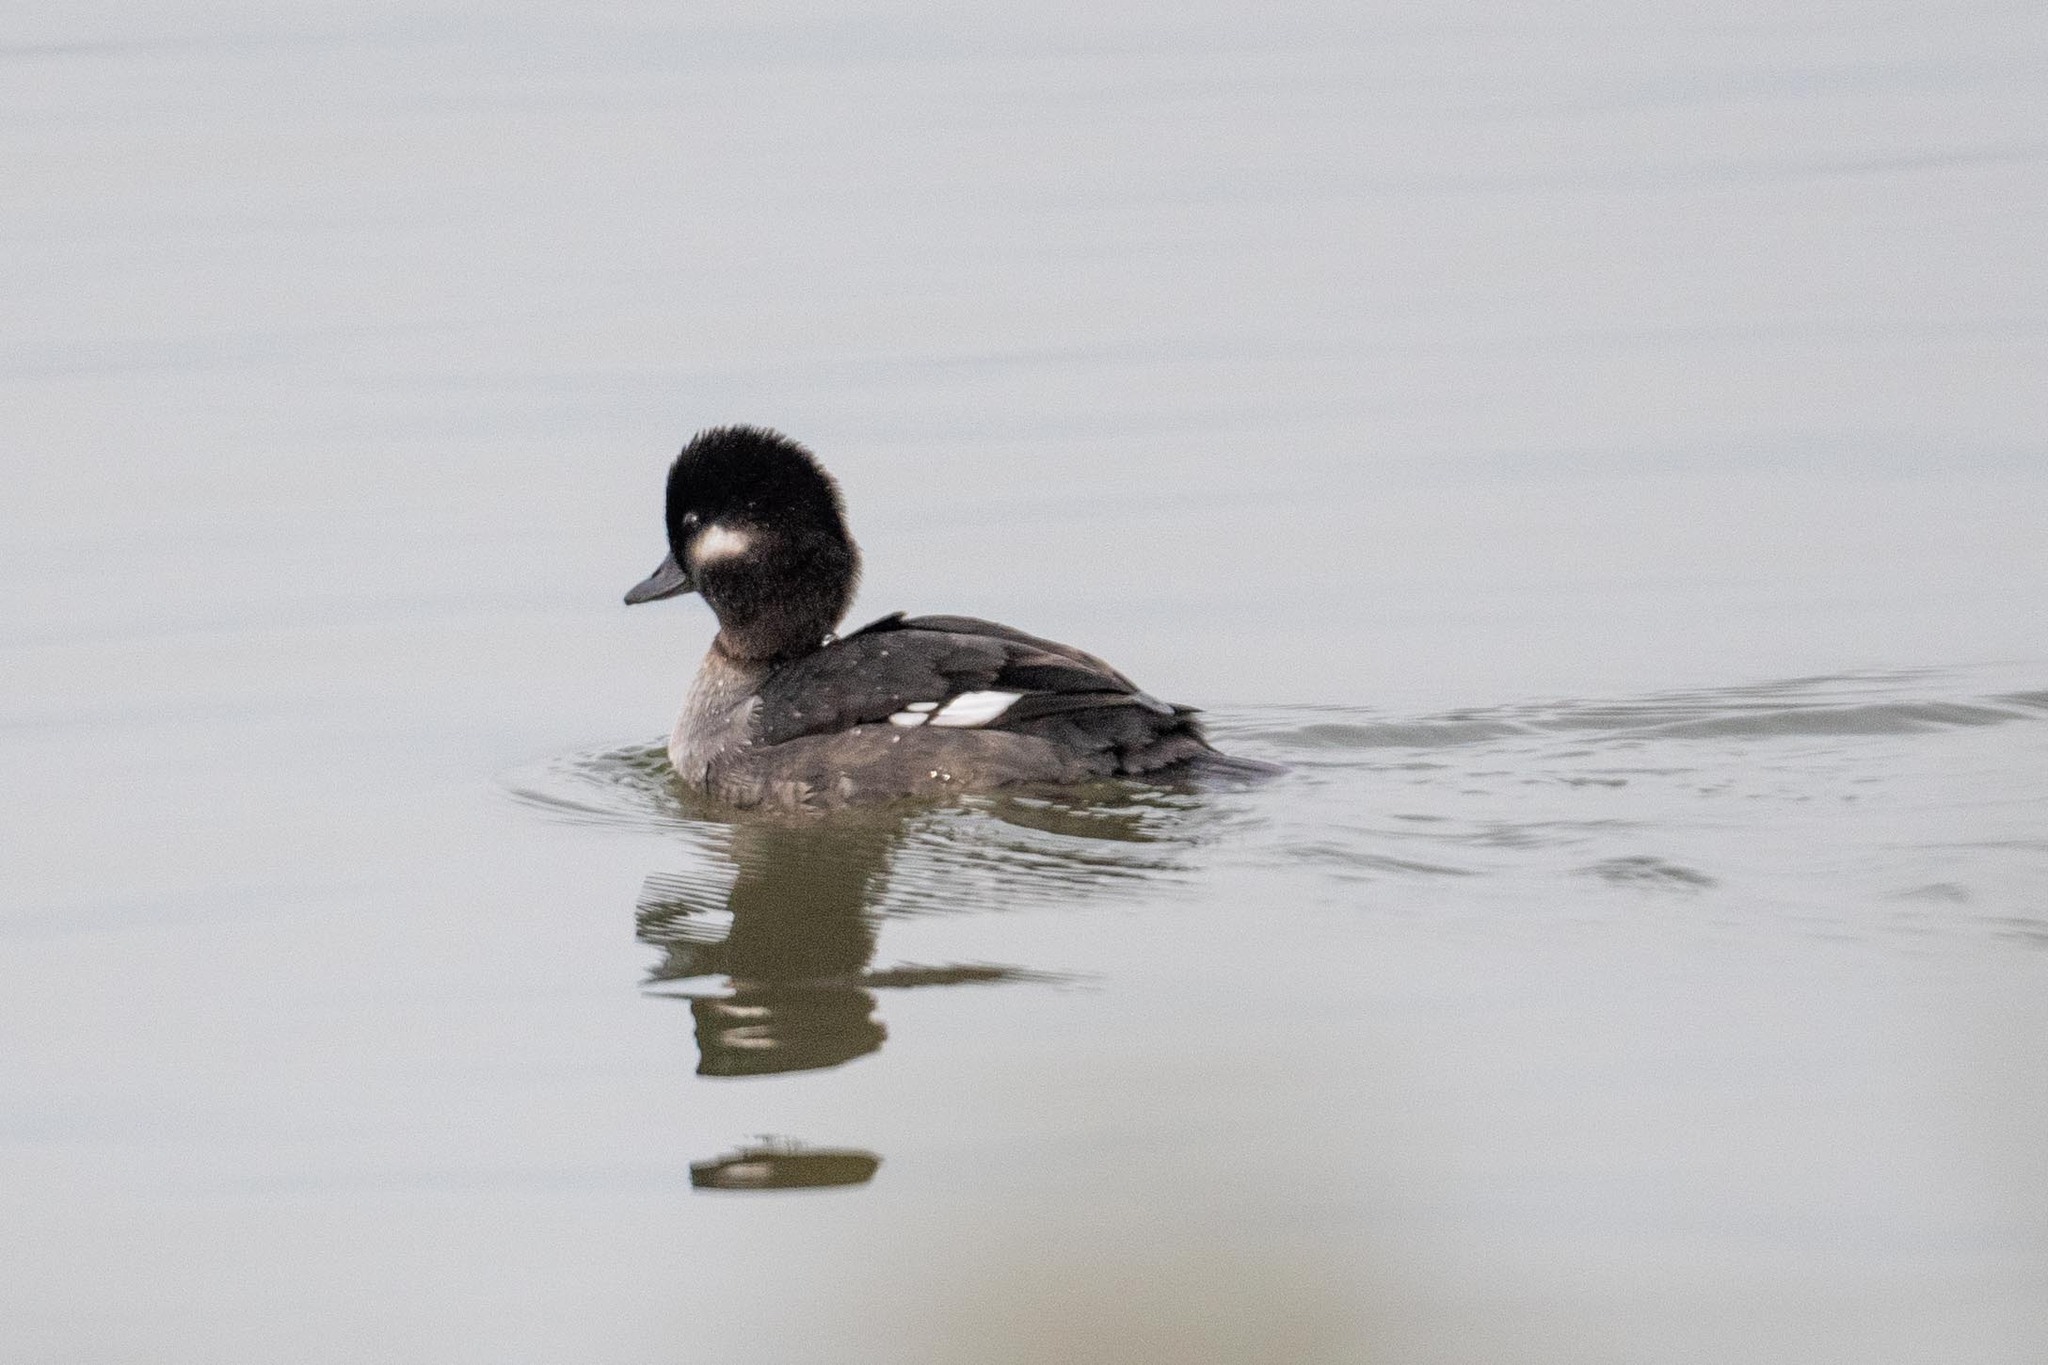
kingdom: Animalia
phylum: Chordata
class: Aves
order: Anseriformes
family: Anatidae
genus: Bucephala
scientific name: Bucephala albeola
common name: Bufflehead
